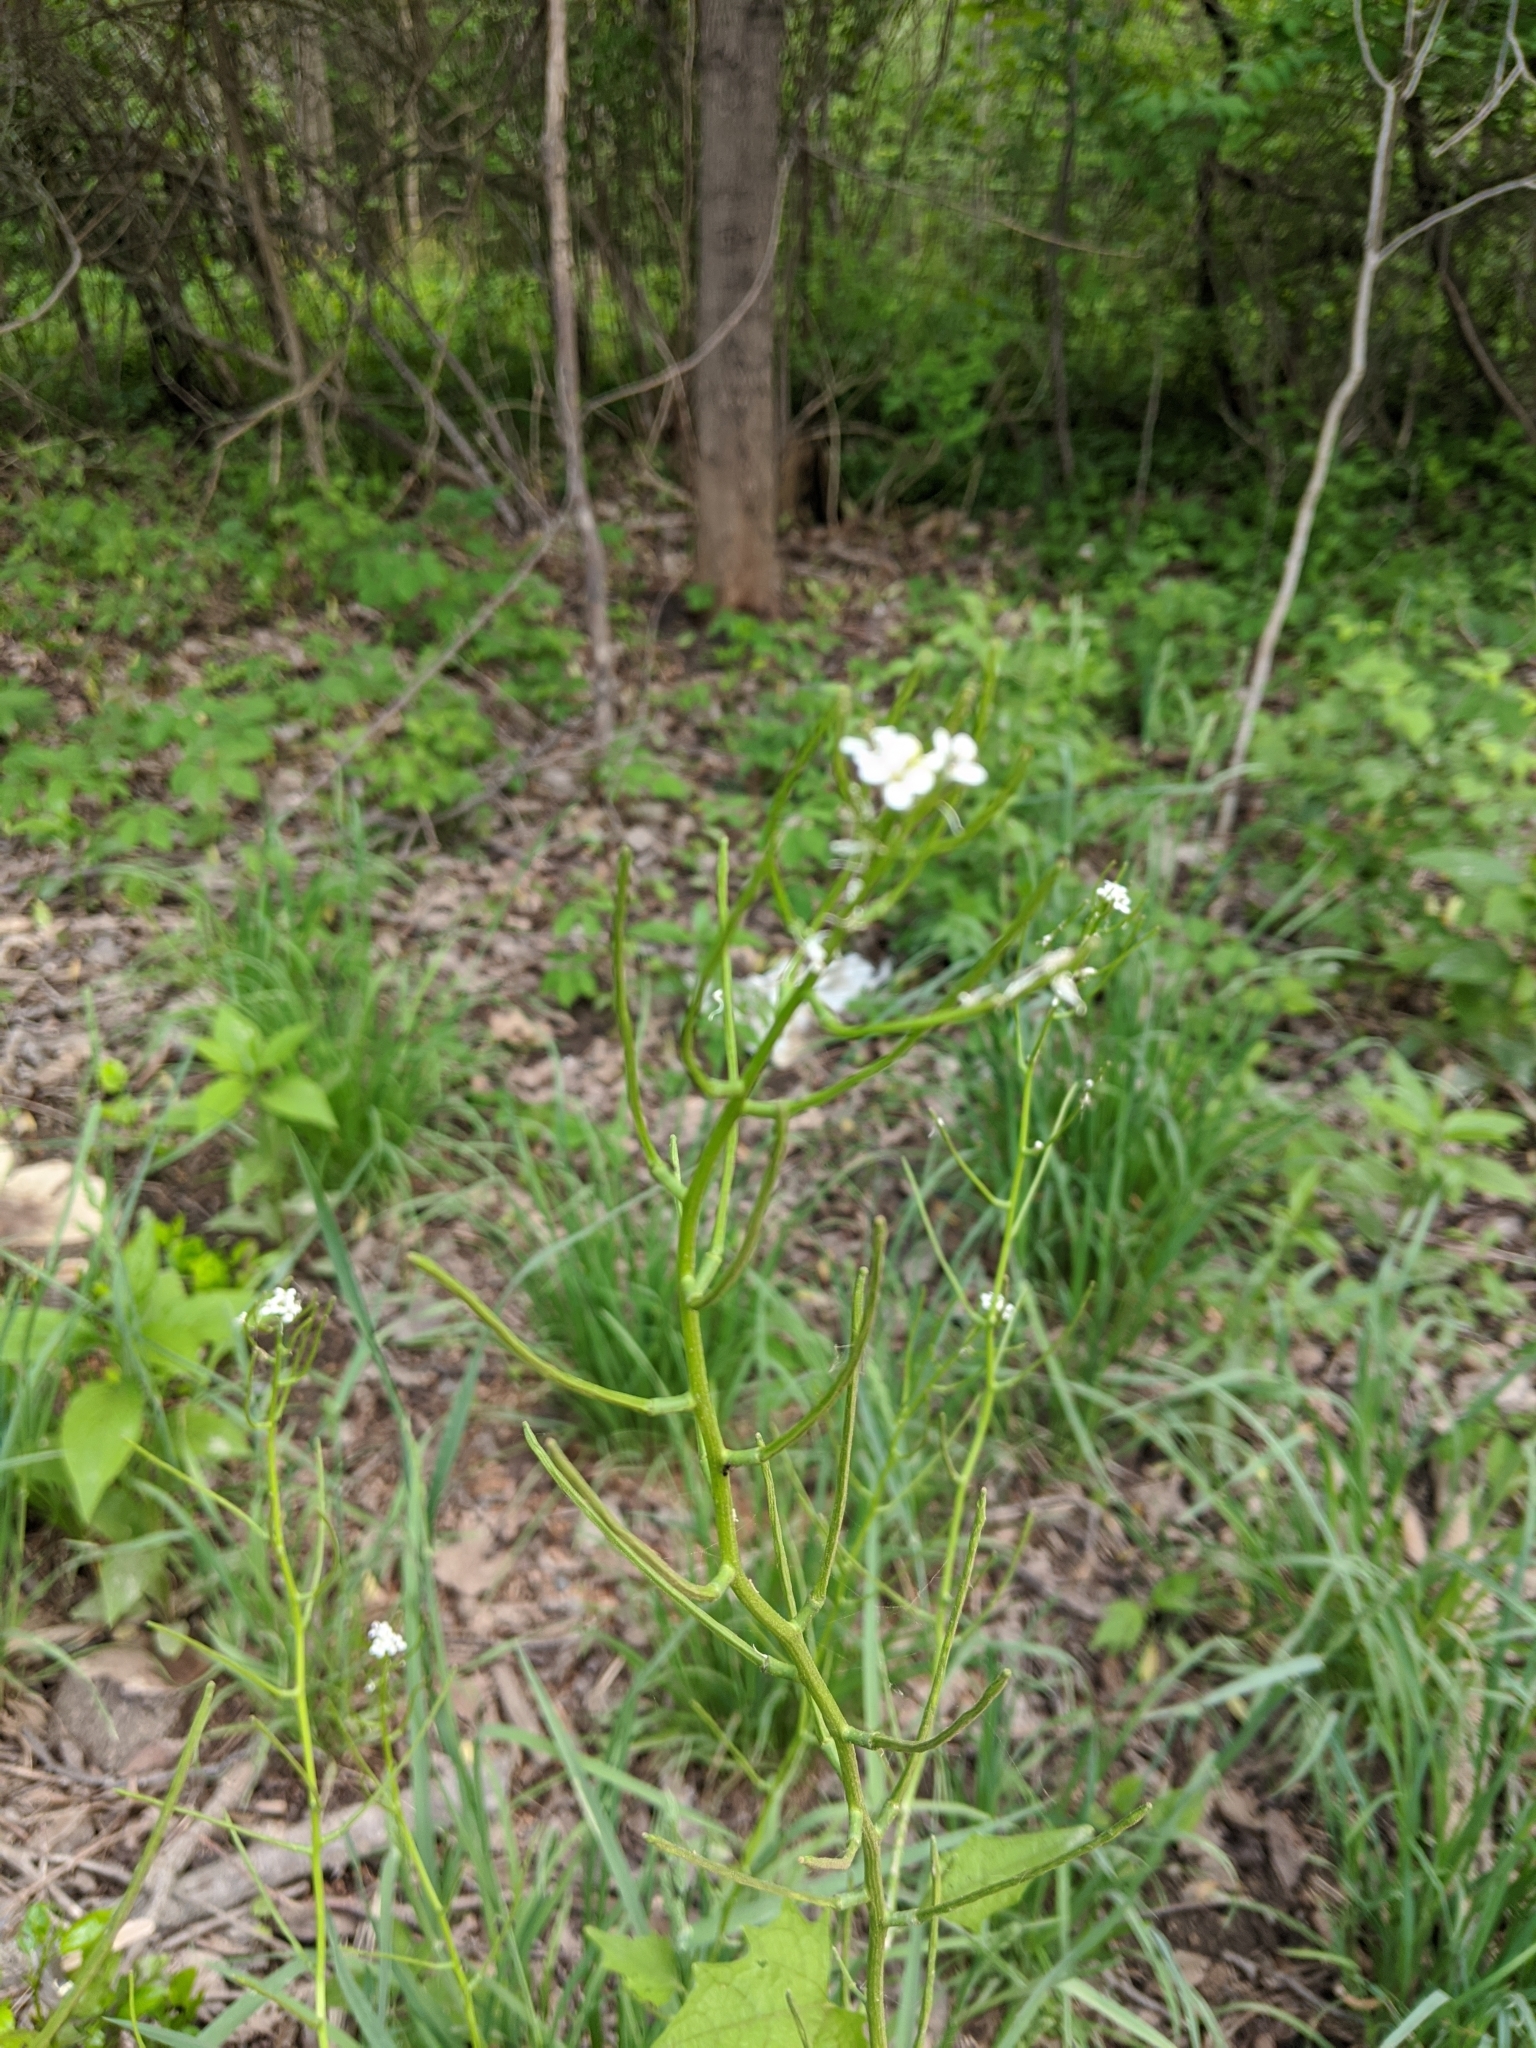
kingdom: Plantae
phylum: Tracheophyta
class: Magnoliopsida
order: Brassicales
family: Brassicaceae
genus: Alliaria
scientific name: Alliaria petiolata
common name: Garlic mustard
